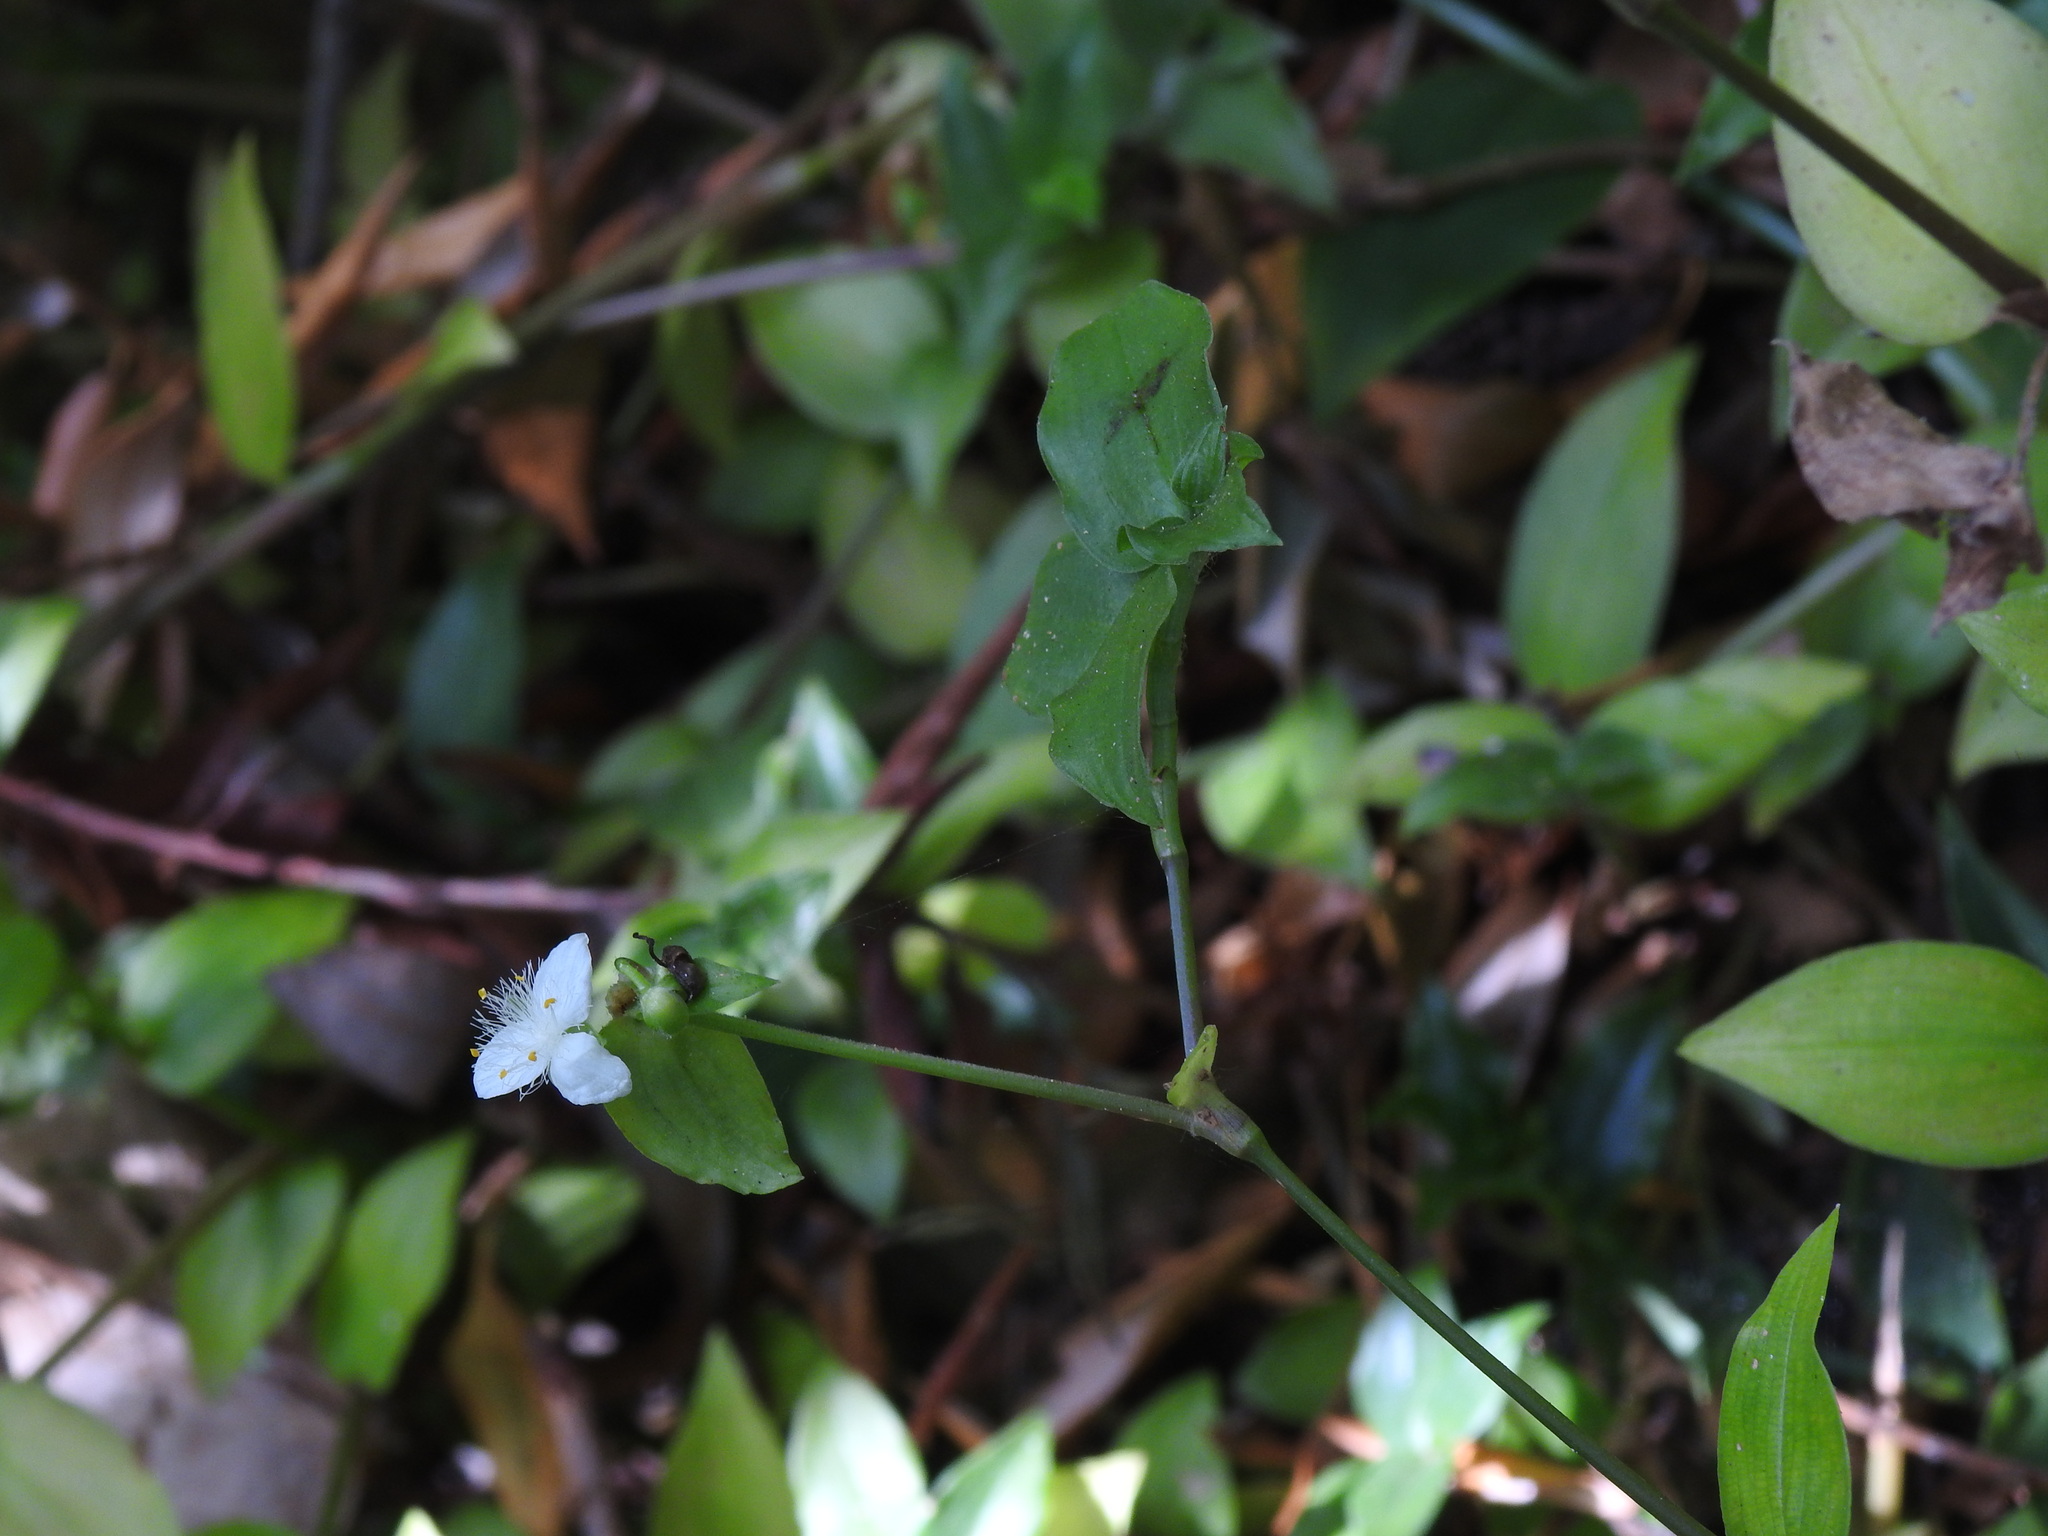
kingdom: Plantae
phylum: Tracheophyta
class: Liliopsida
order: Commelinales
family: Commelinaceae
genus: Tradescantia
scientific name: Tradescantia fluminensis
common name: Wandering-jew
